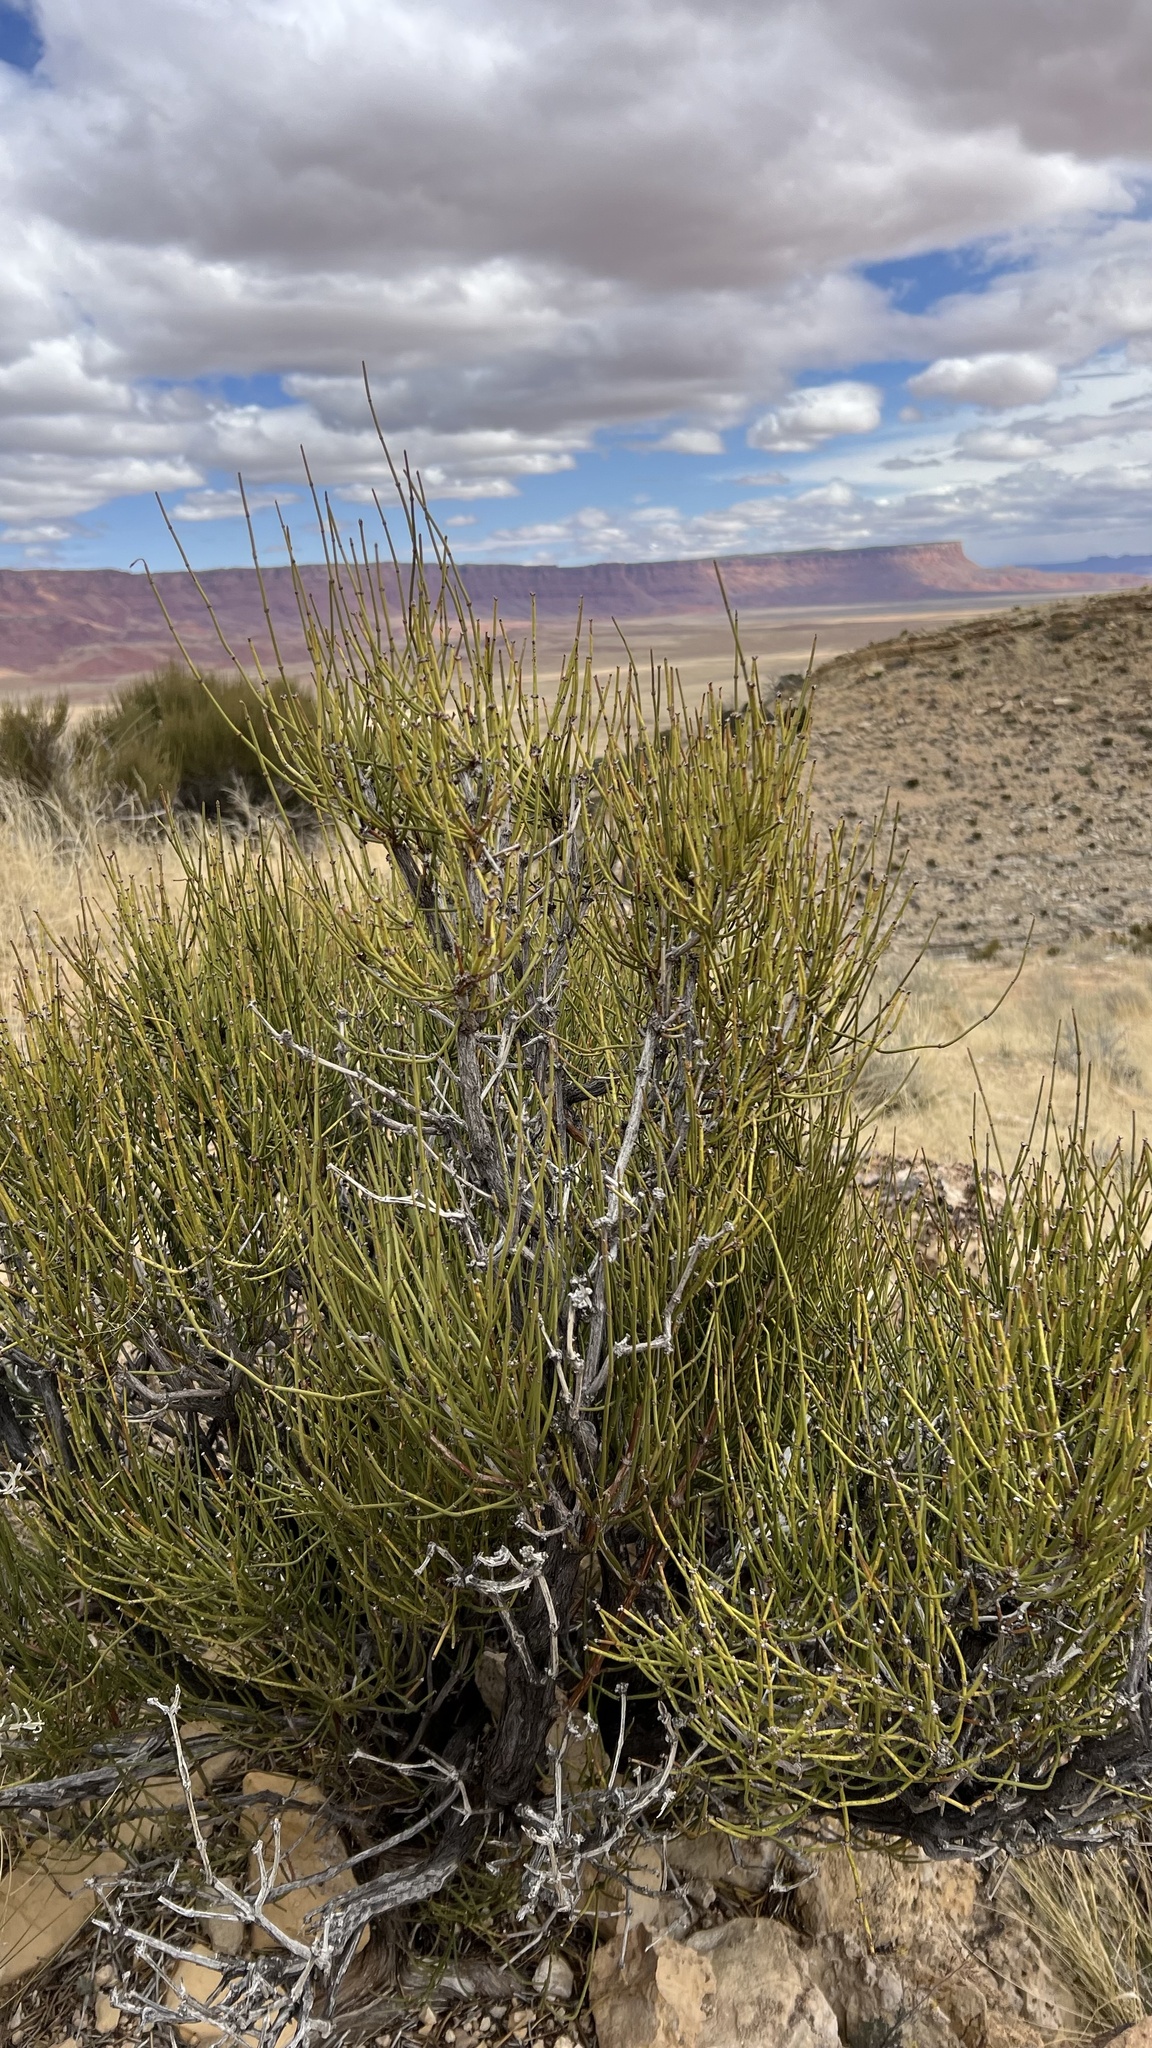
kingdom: Plantae
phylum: Tracheophyta
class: Gnetopsida
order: Ephedrales
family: Ephedraceae
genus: Ephedra
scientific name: Ephedra viridis
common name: Green ephedra
